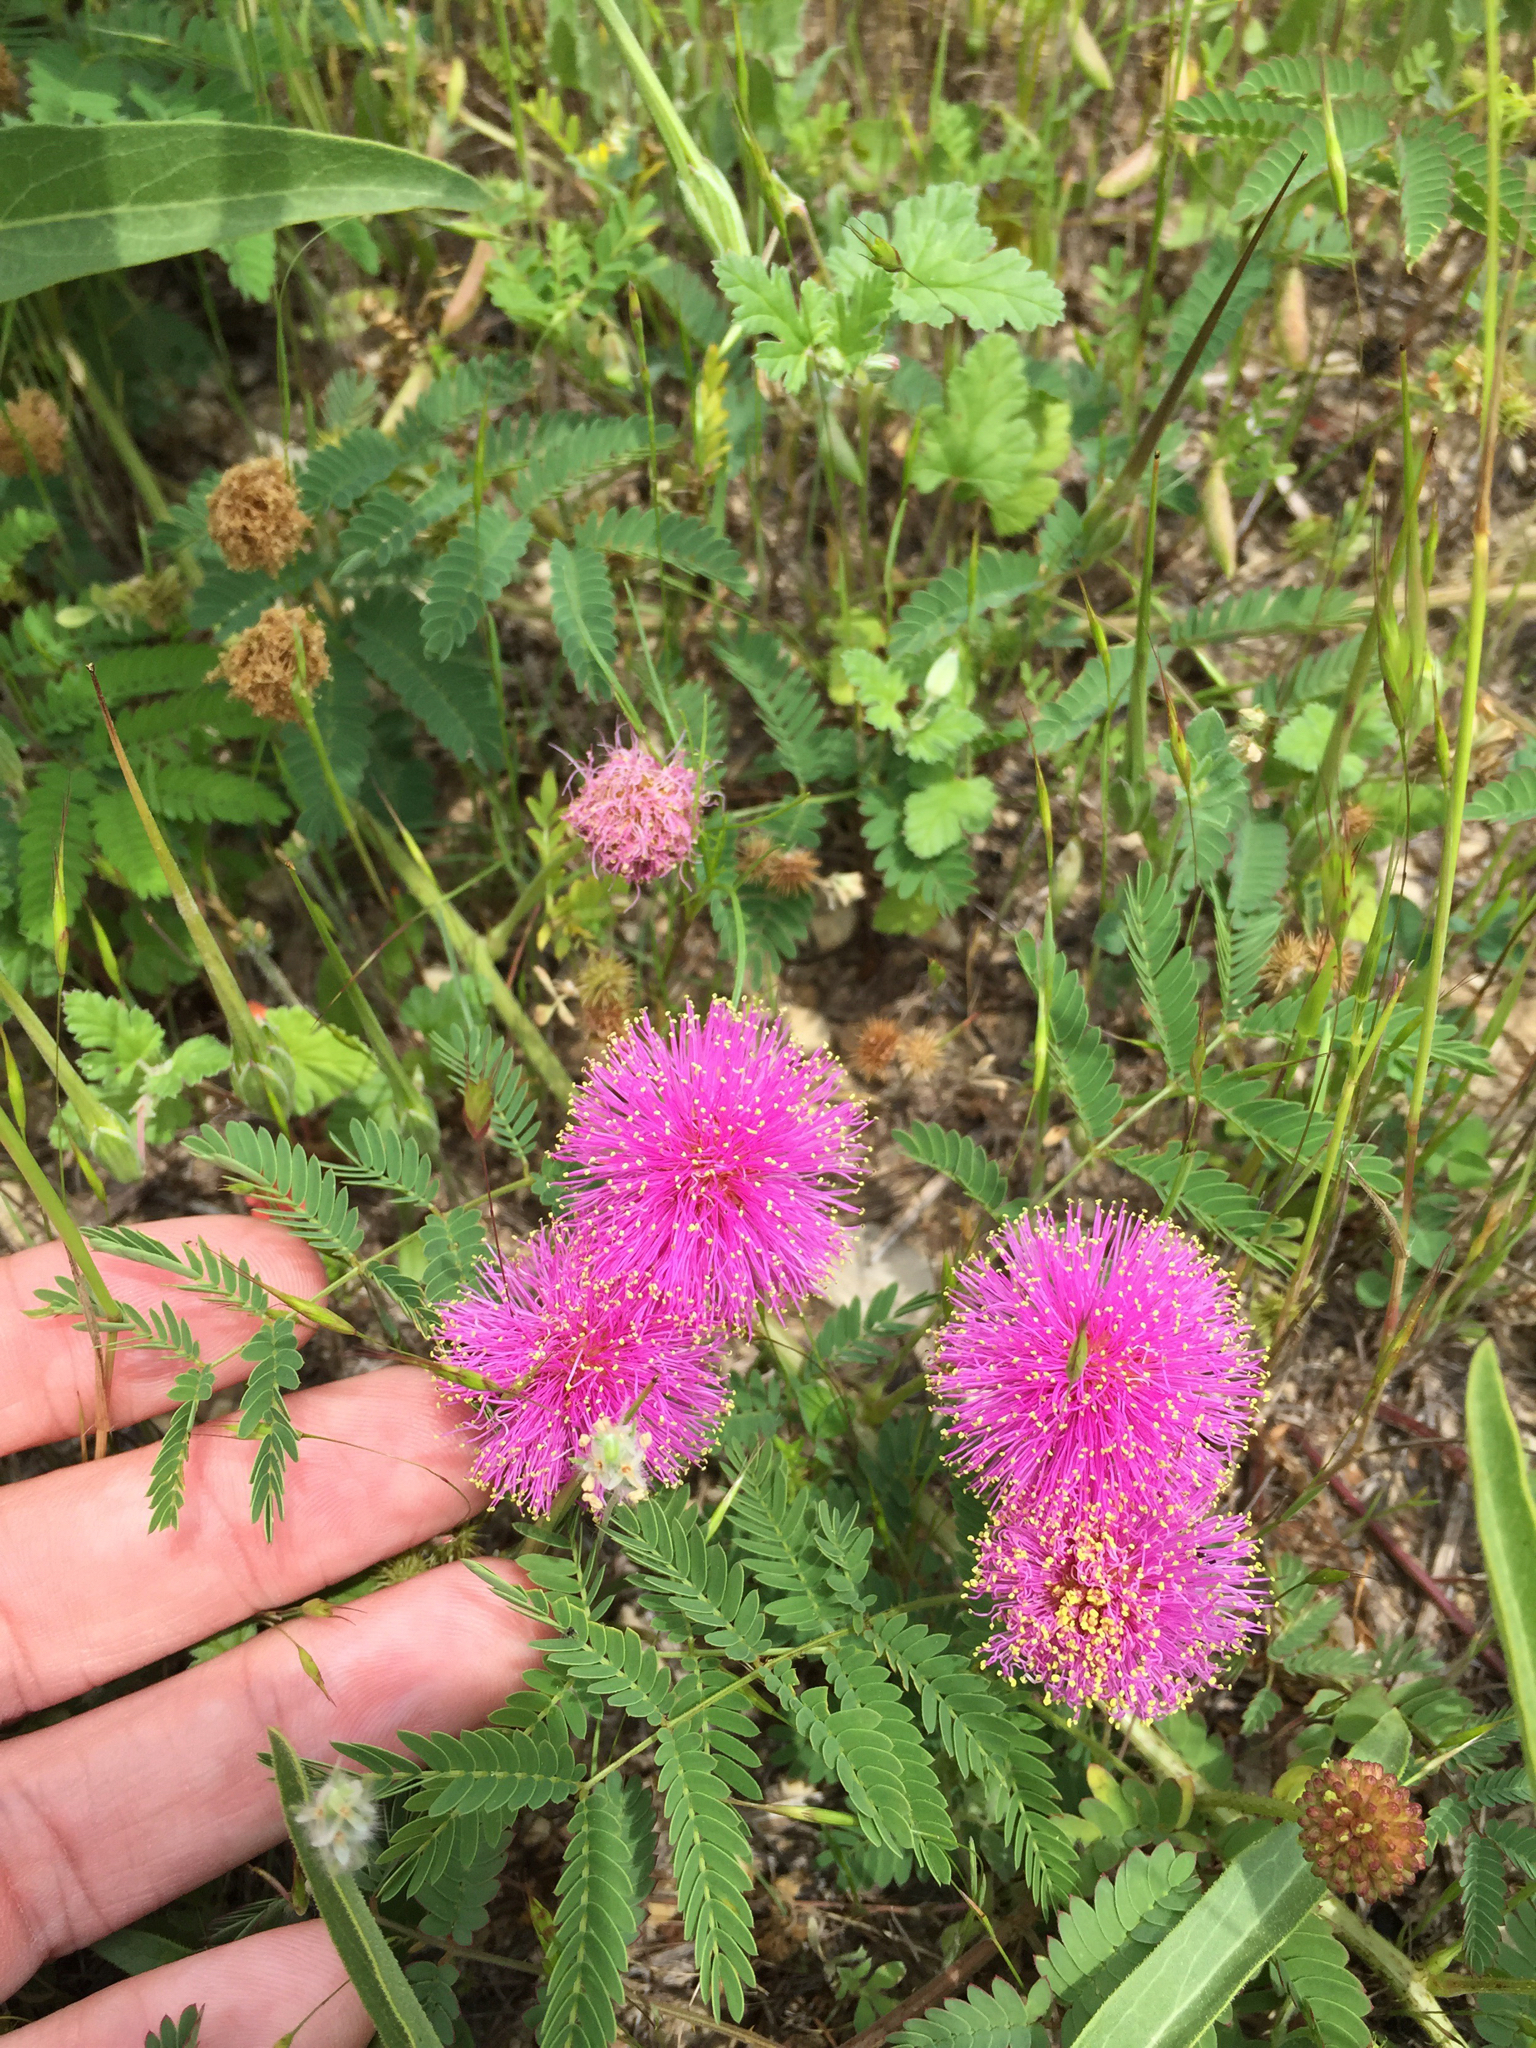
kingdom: Plantae
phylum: Tracheophyta
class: Magnoliopsida
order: Fabales
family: Fabaceae
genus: Mimosa
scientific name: Mimosa quadrivalvis
